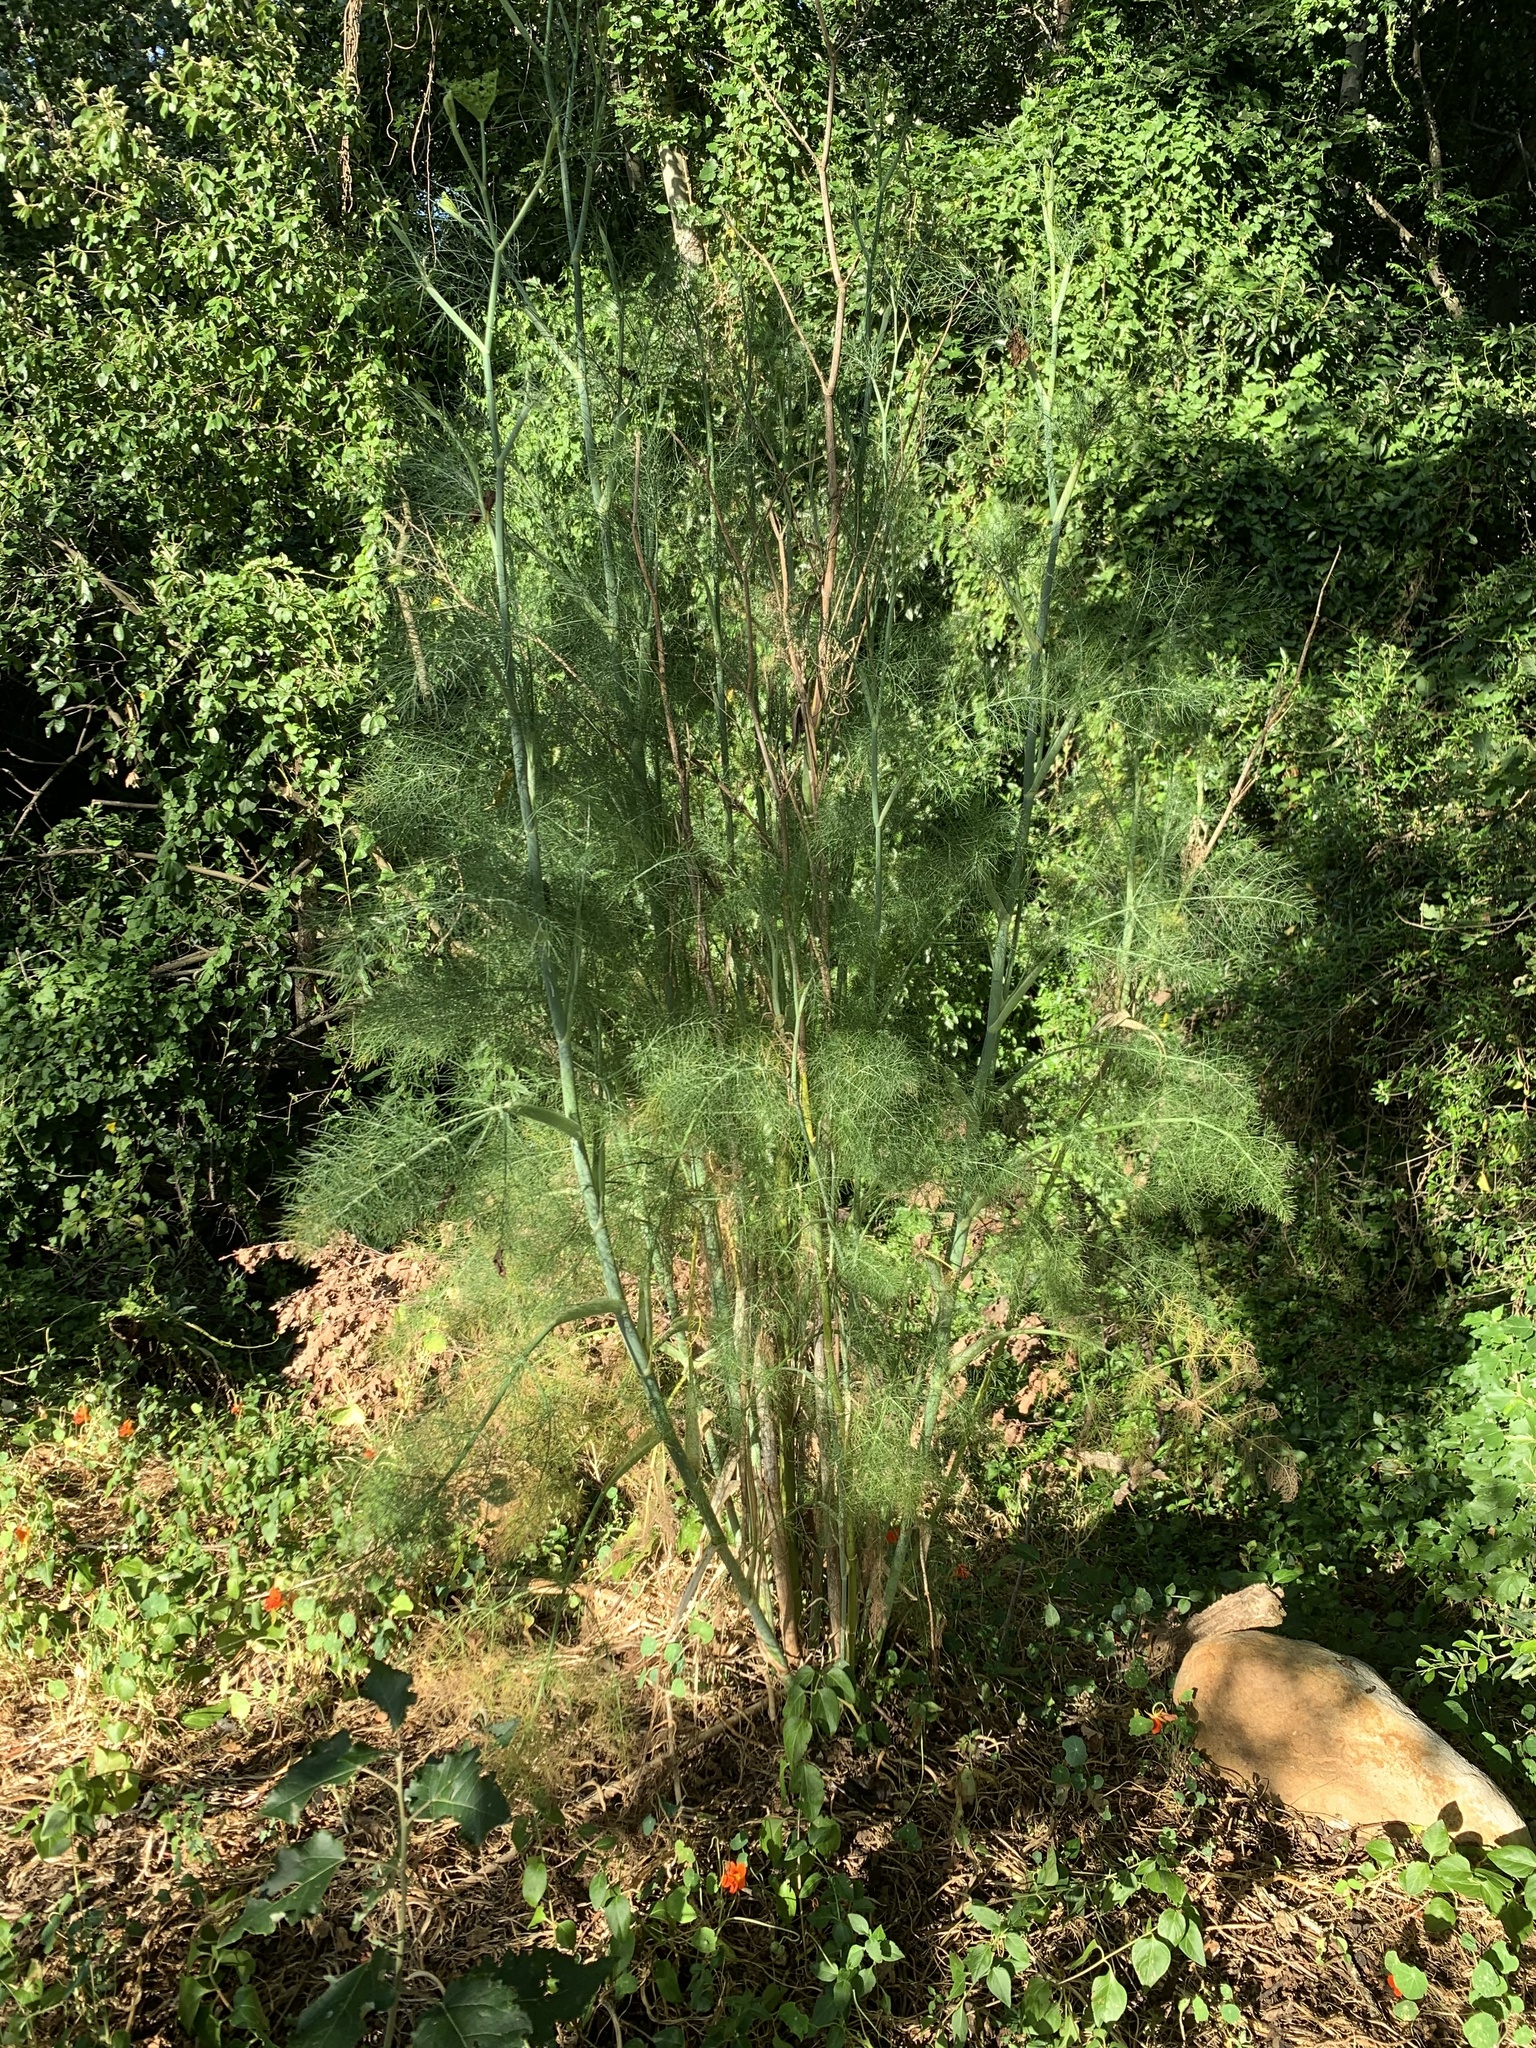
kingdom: Plantae
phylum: Tracheophyta
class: Magnoliopsida
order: Apiales
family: Apiaceae
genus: Foeniculum
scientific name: Foeniculum vulgare
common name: Fennel
